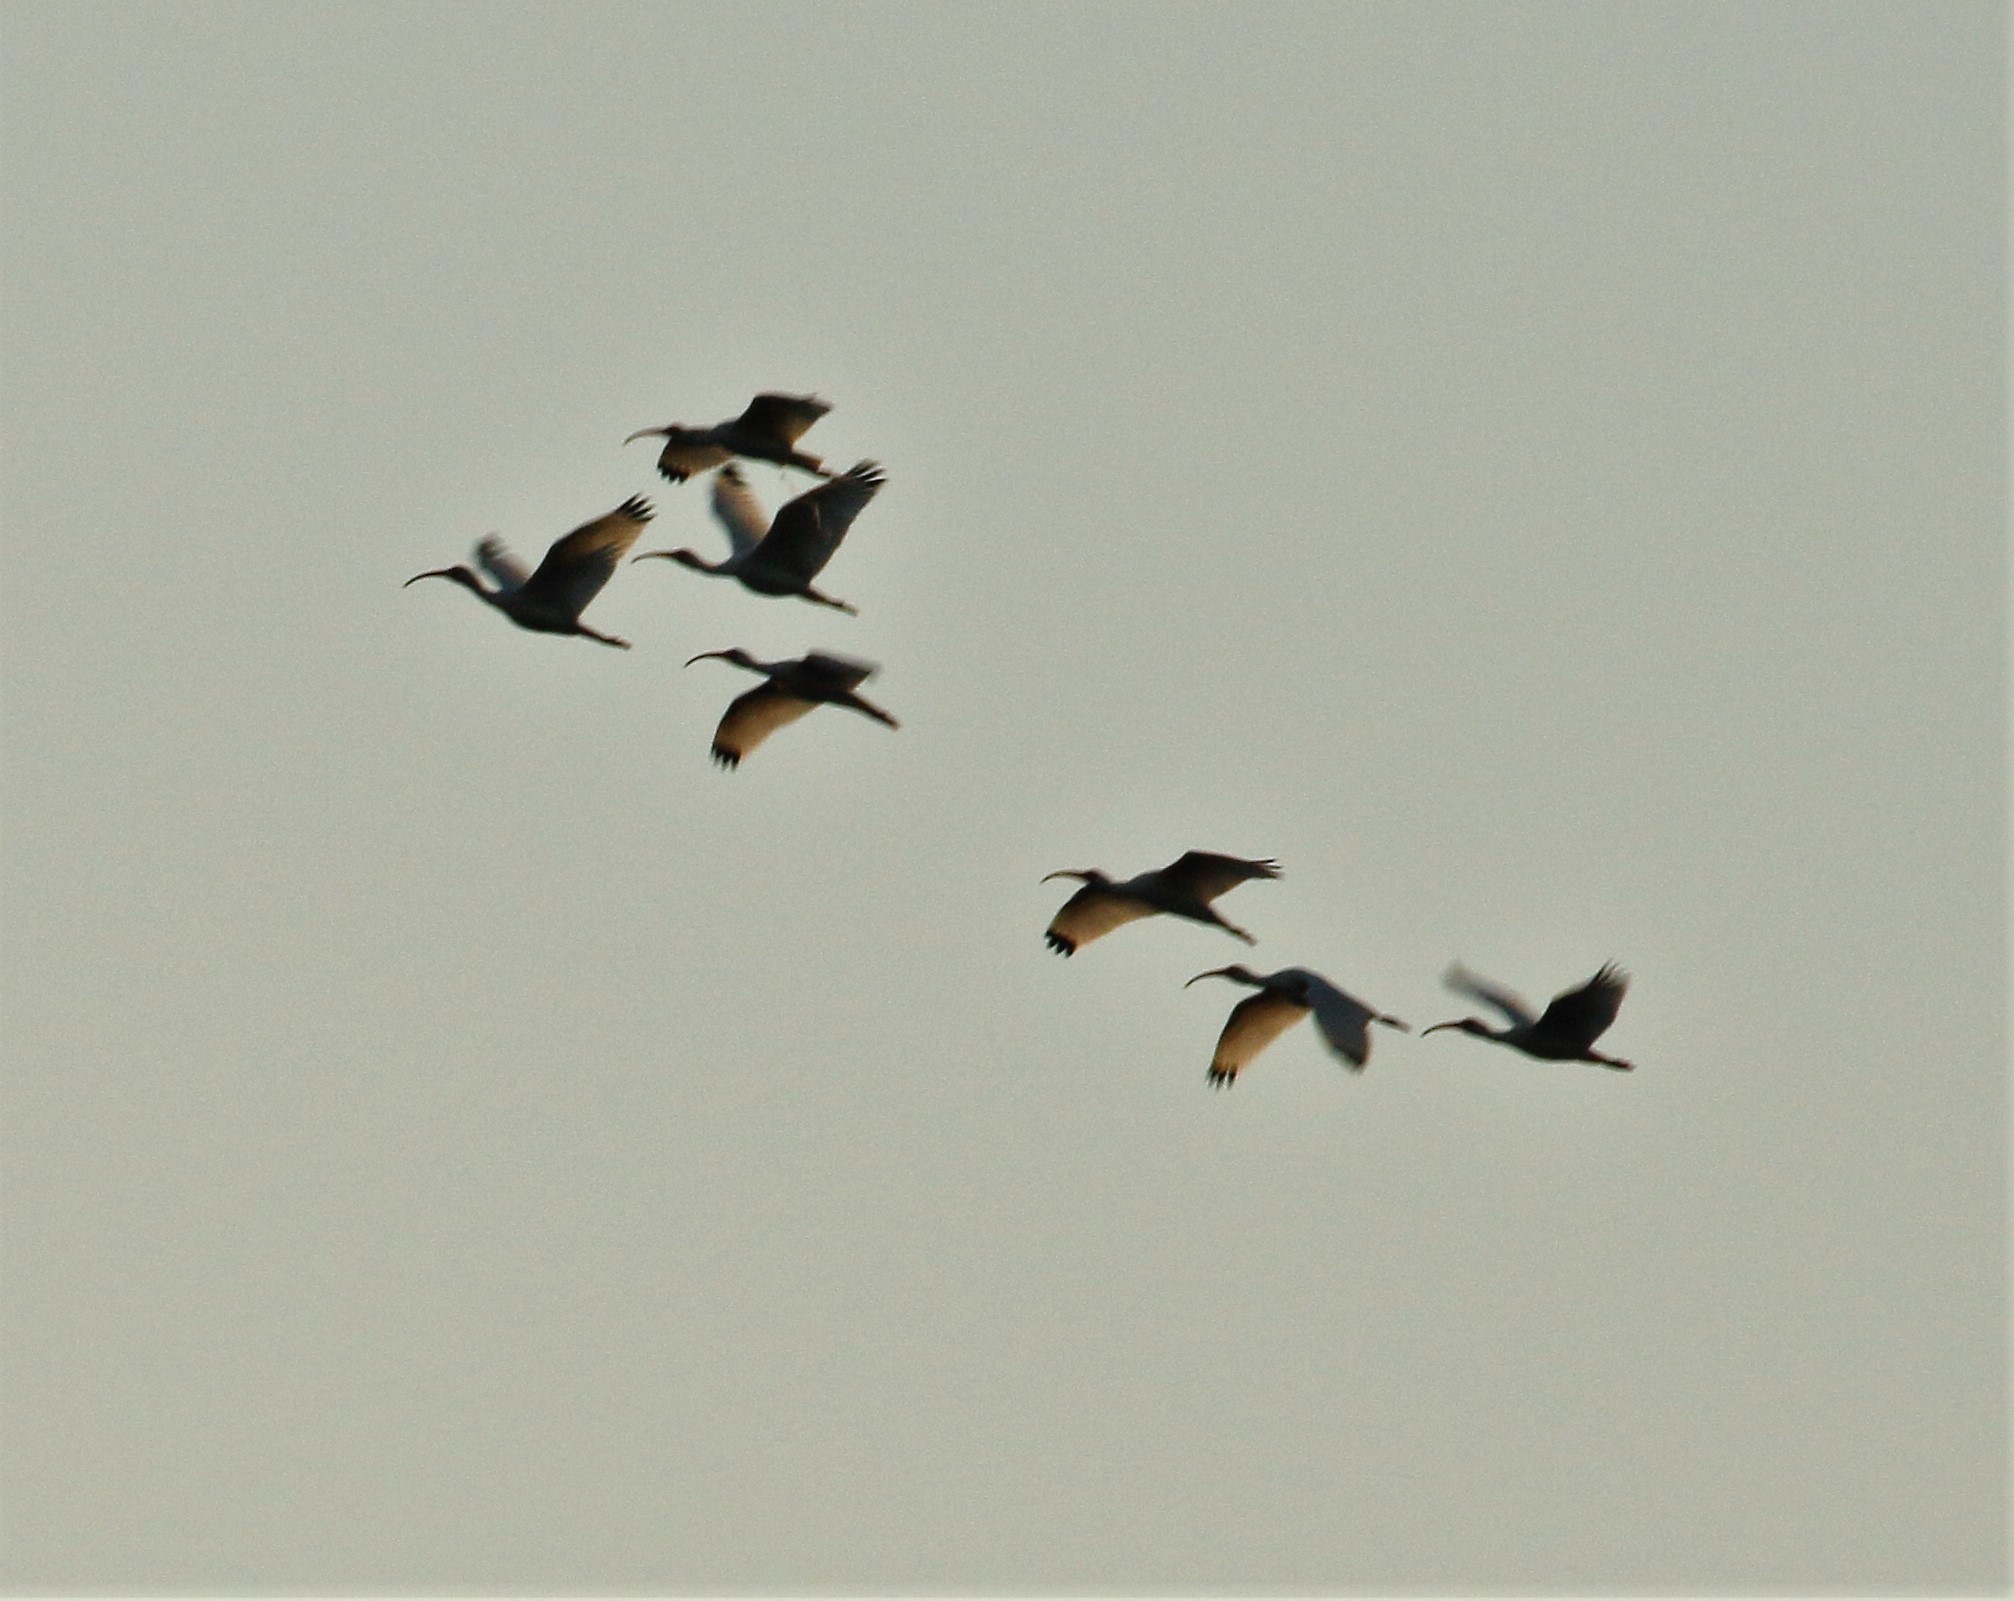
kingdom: Animalia
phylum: Chordata
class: Aves
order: Pelecaniformes
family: Threskiornithidae
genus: Eudocimus
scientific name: Eudocimus albus
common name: White ibis
